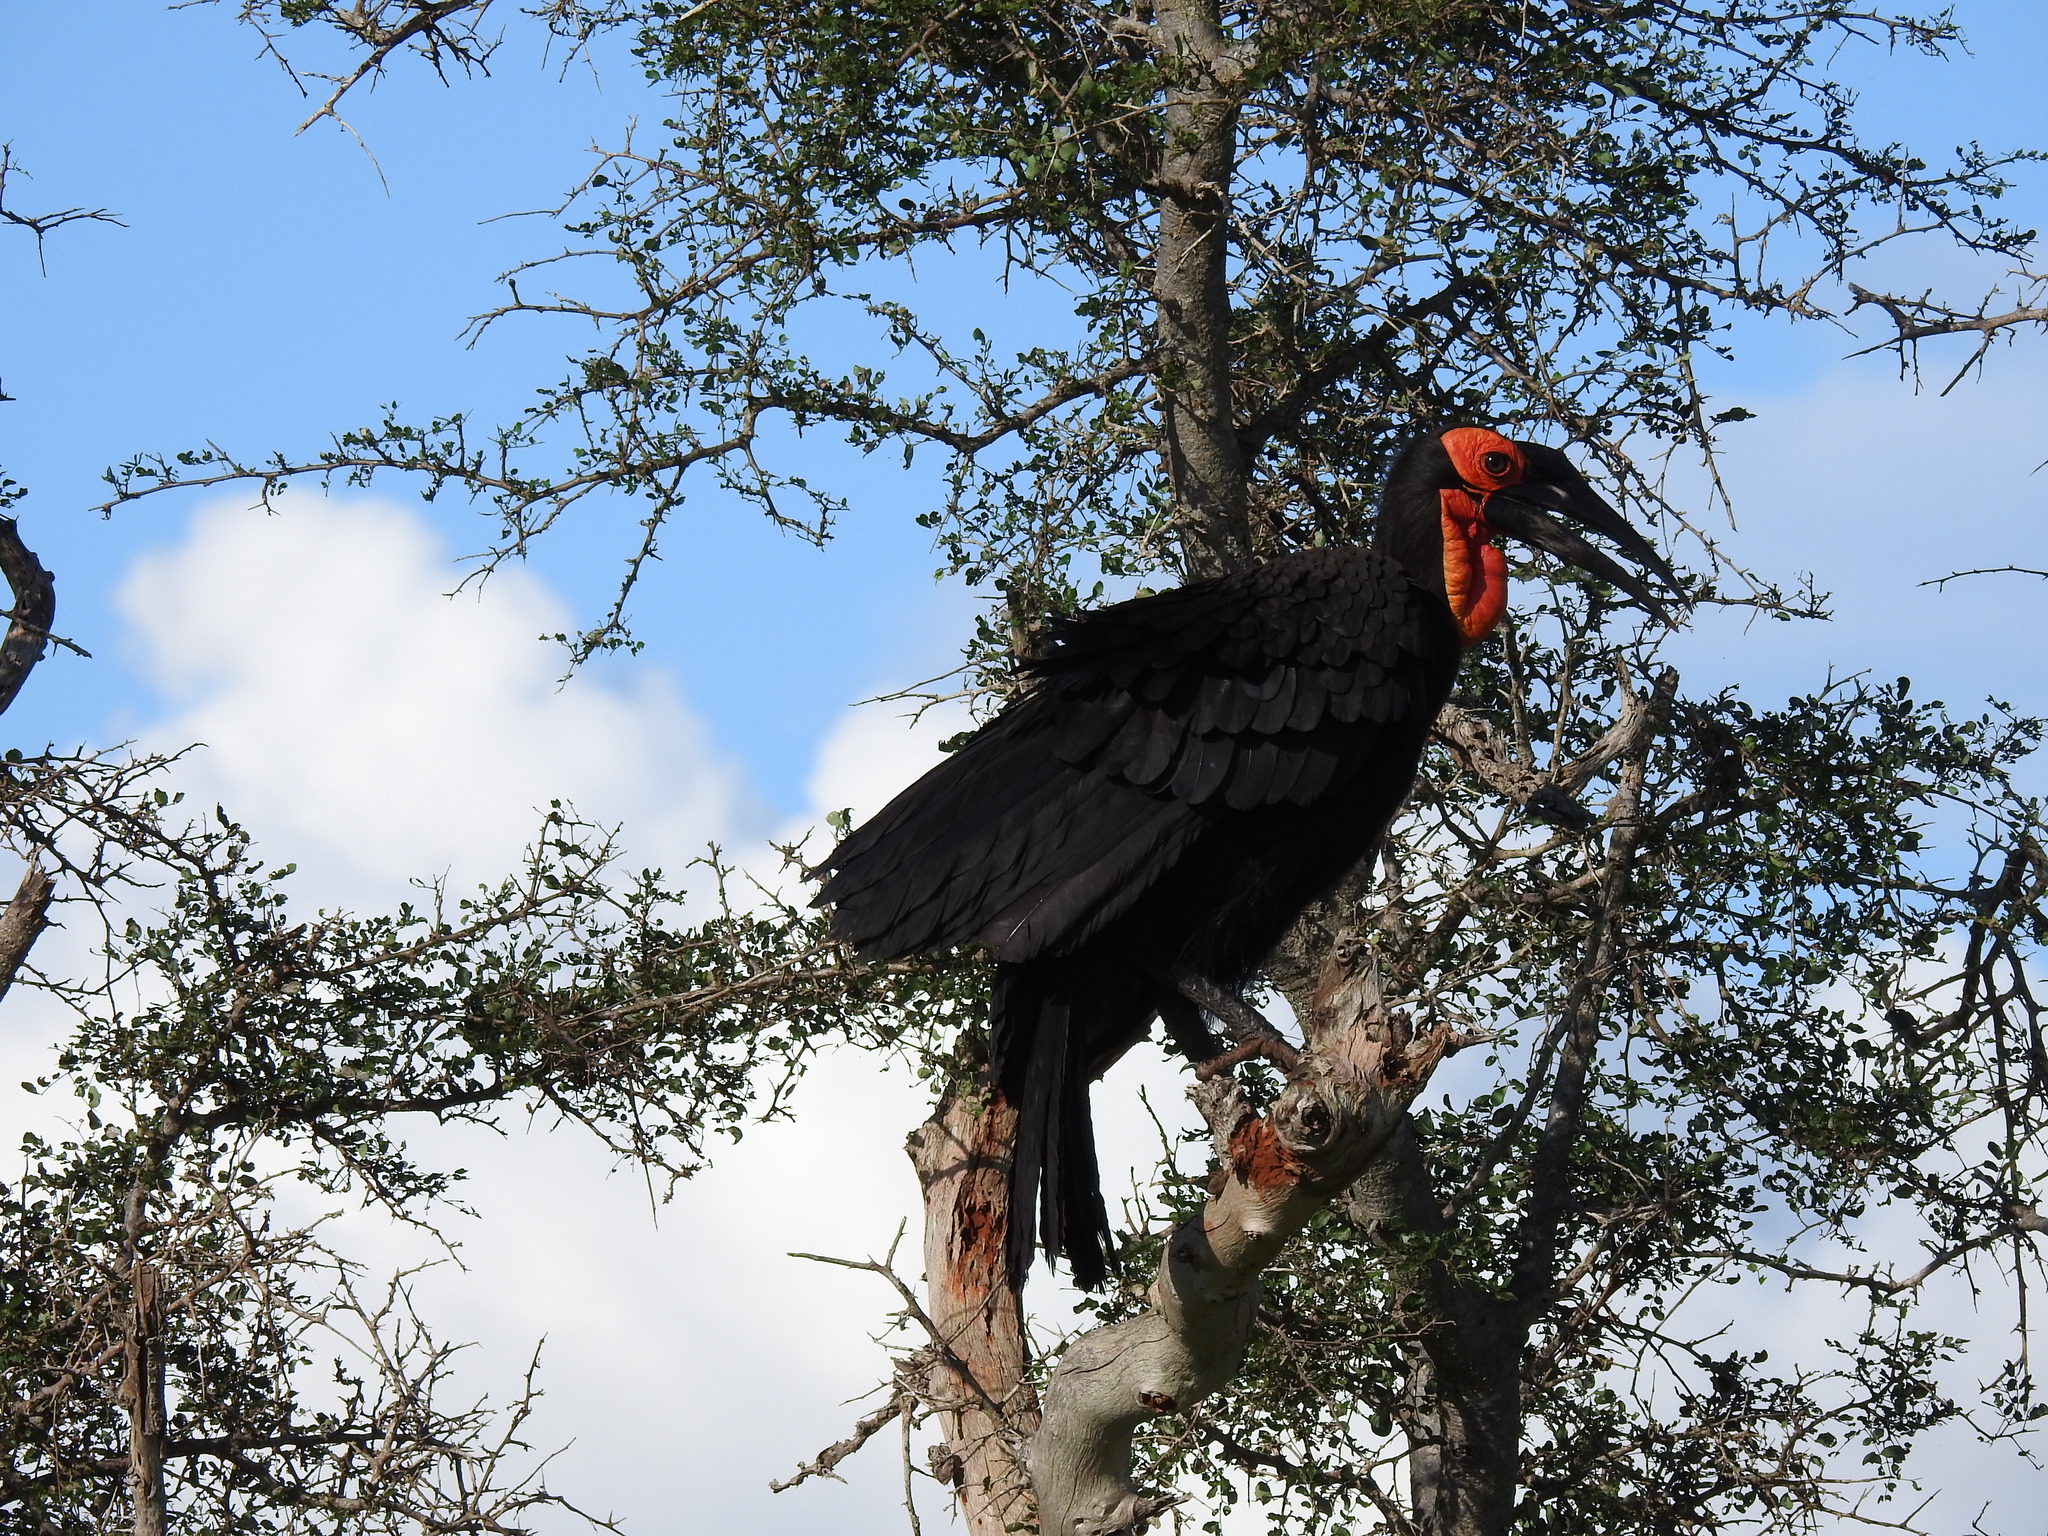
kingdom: Animalia
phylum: Chordata
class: Aves
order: Bucerotiformes
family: Bucorvidae
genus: Bucorvus
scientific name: Bucorvus leadbeateri
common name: Southern ground-hornbill
